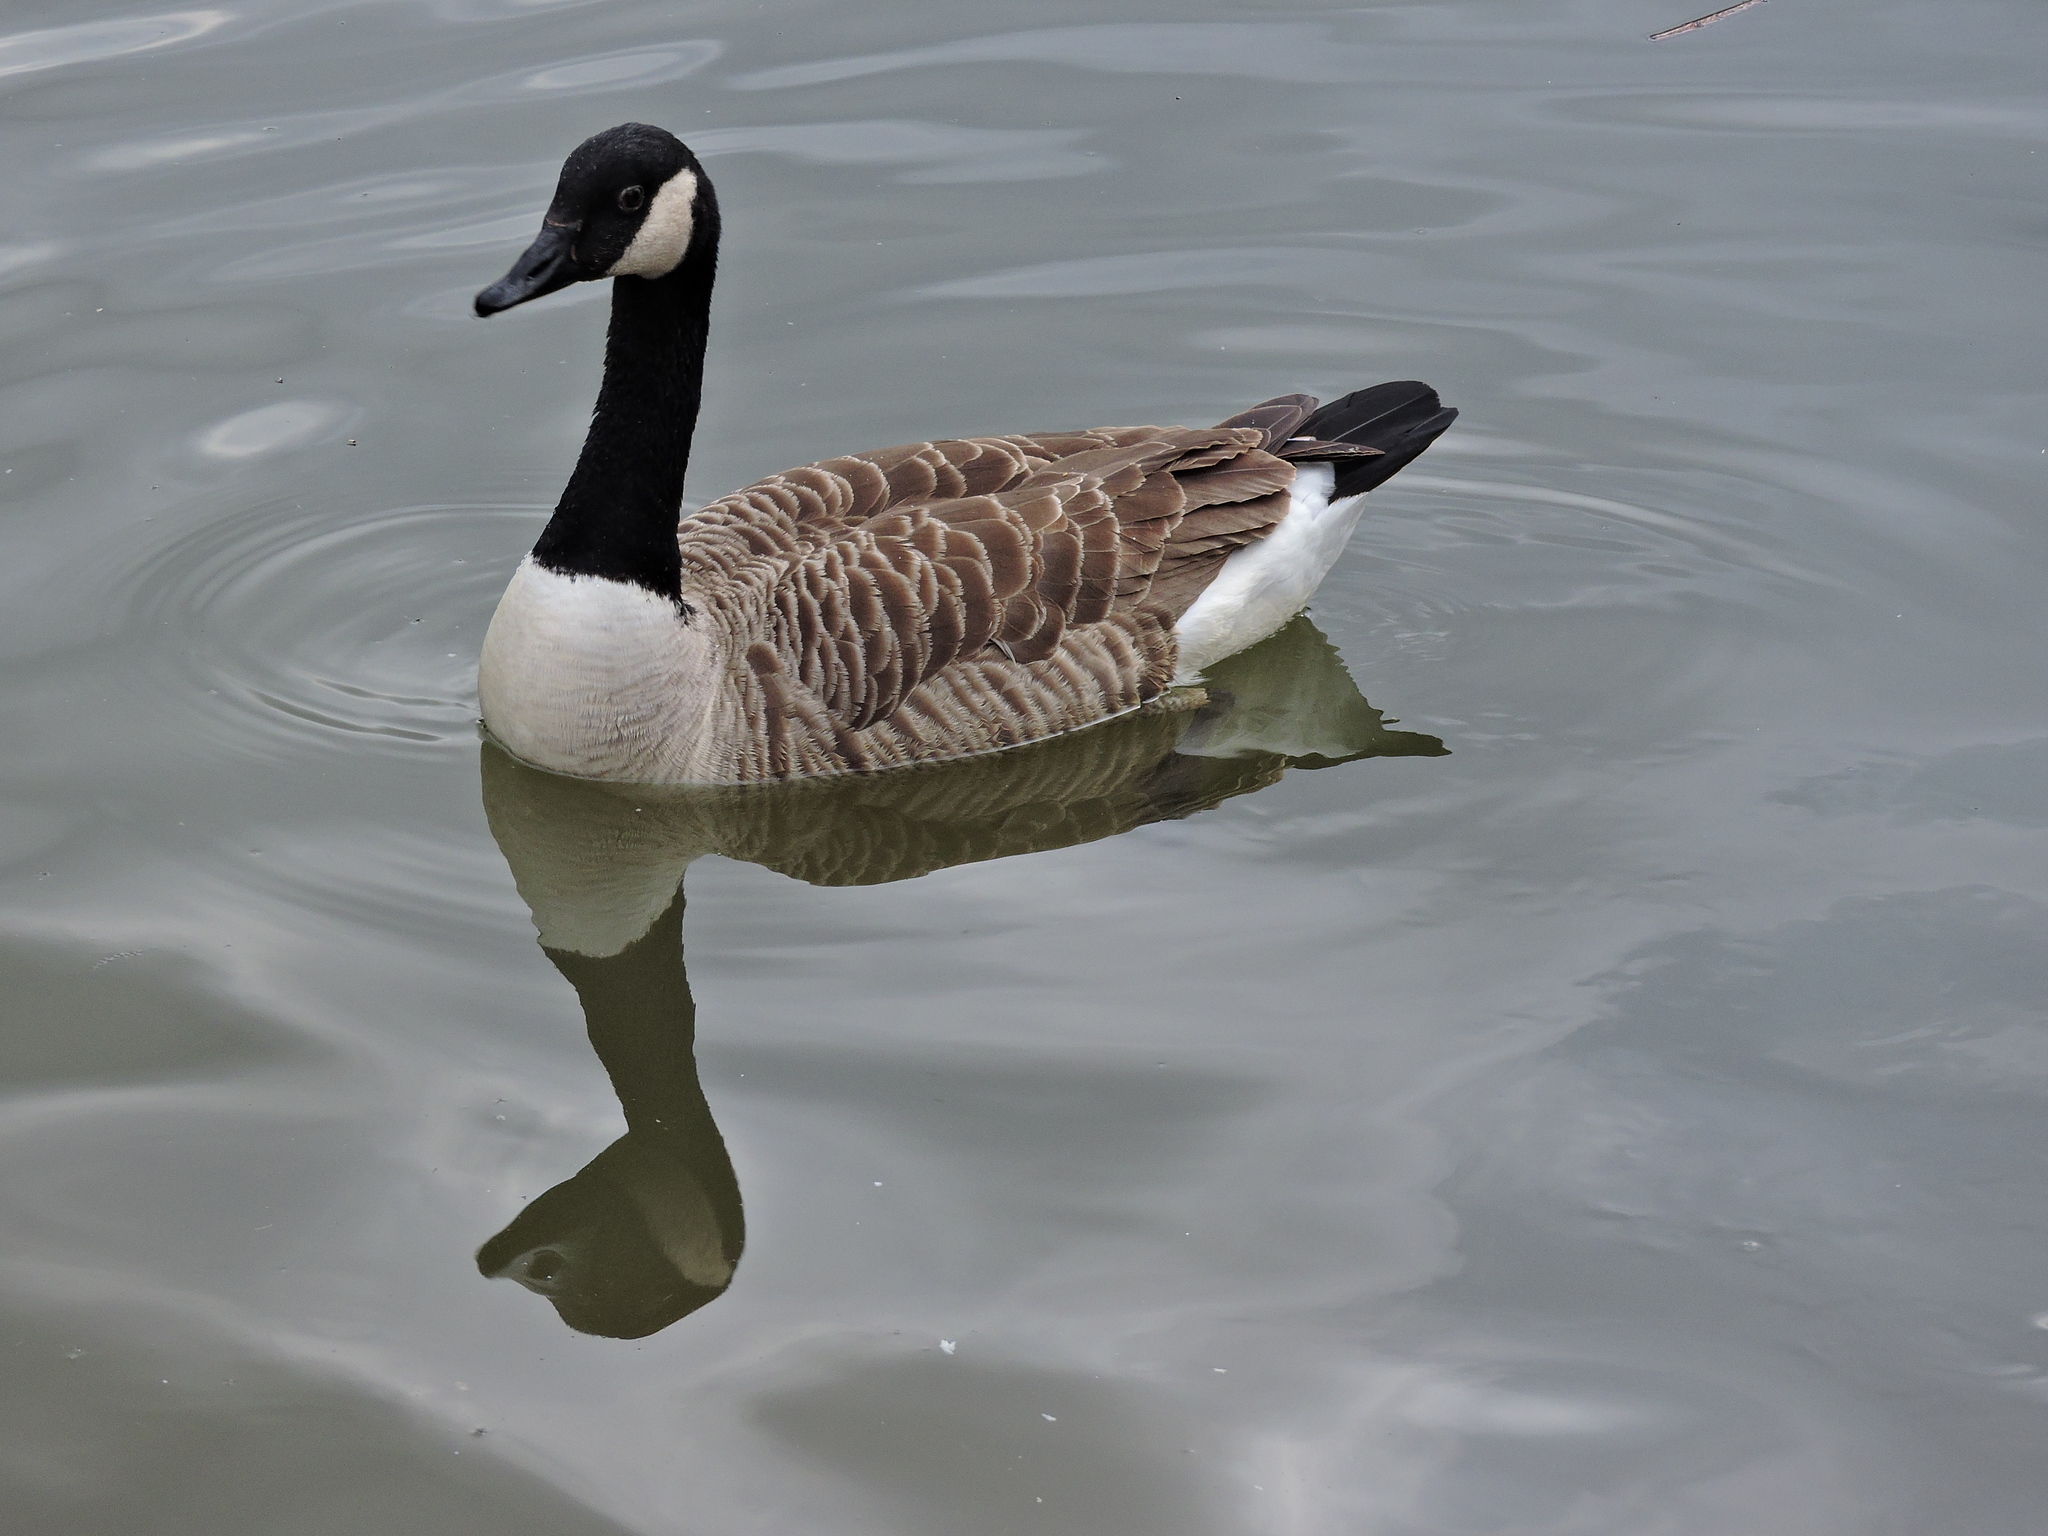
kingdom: Animalia
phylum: Chordata
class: Aves
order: Anseriformes
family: Anatidae
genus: Branta
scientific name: Branta canadensis
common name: Canada goose
